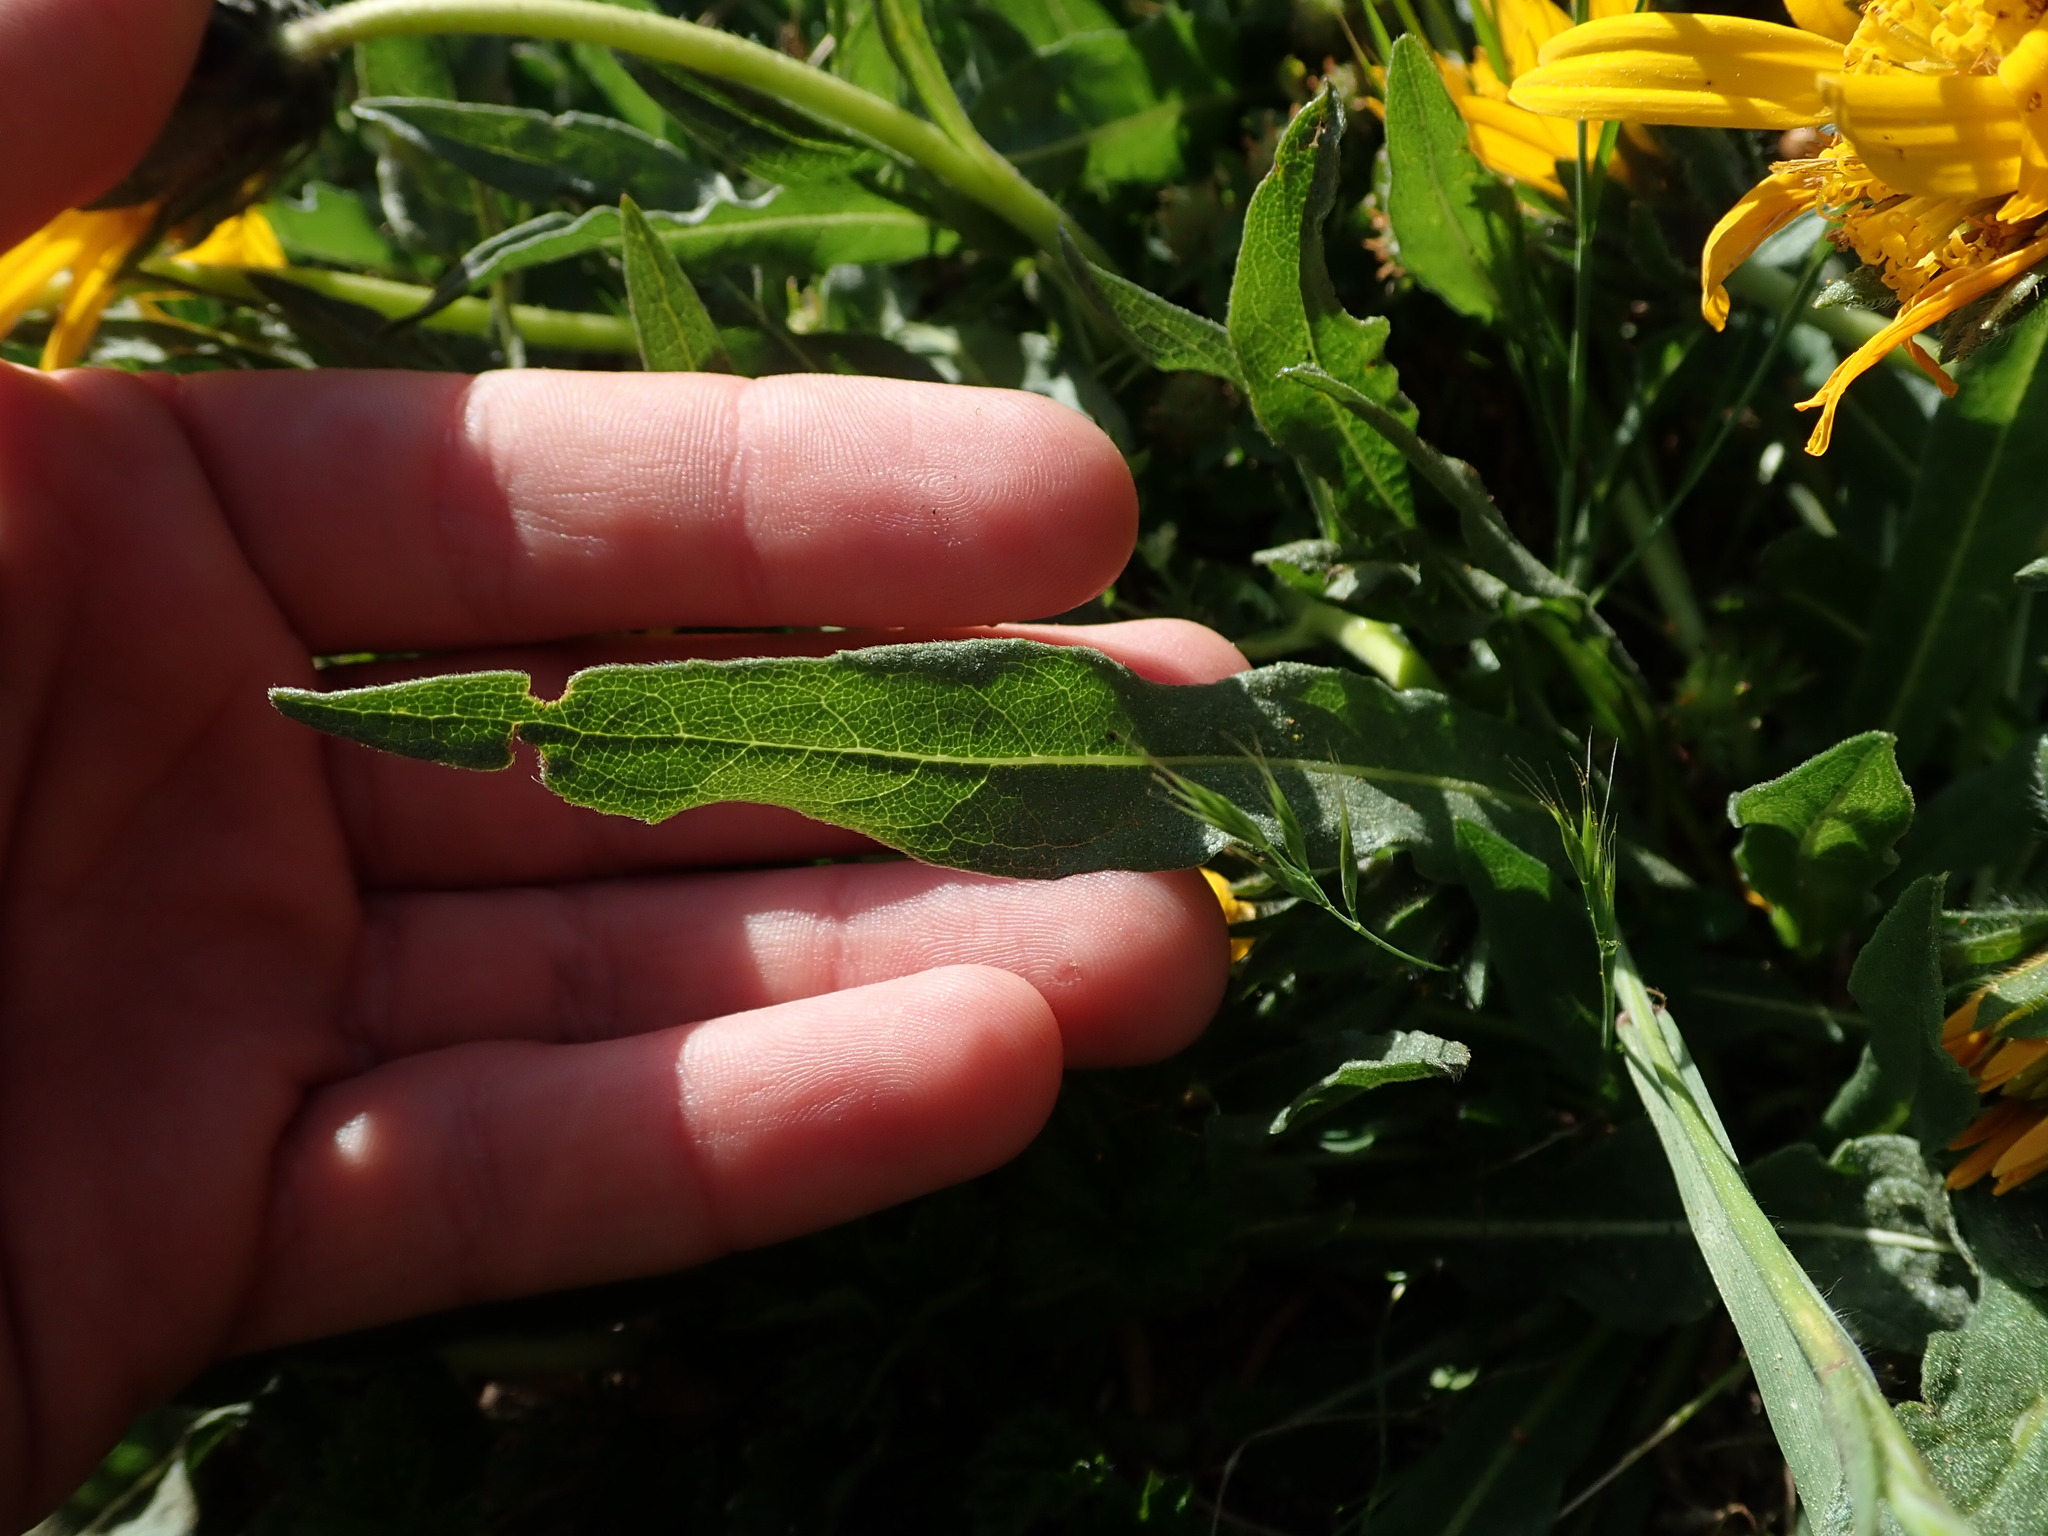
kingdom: Plantae
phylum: Tracheophyta
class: Magnoliopsida
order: Asterales
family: Asteraceae
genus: Wyethia
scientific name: Wyethia angustifolia
